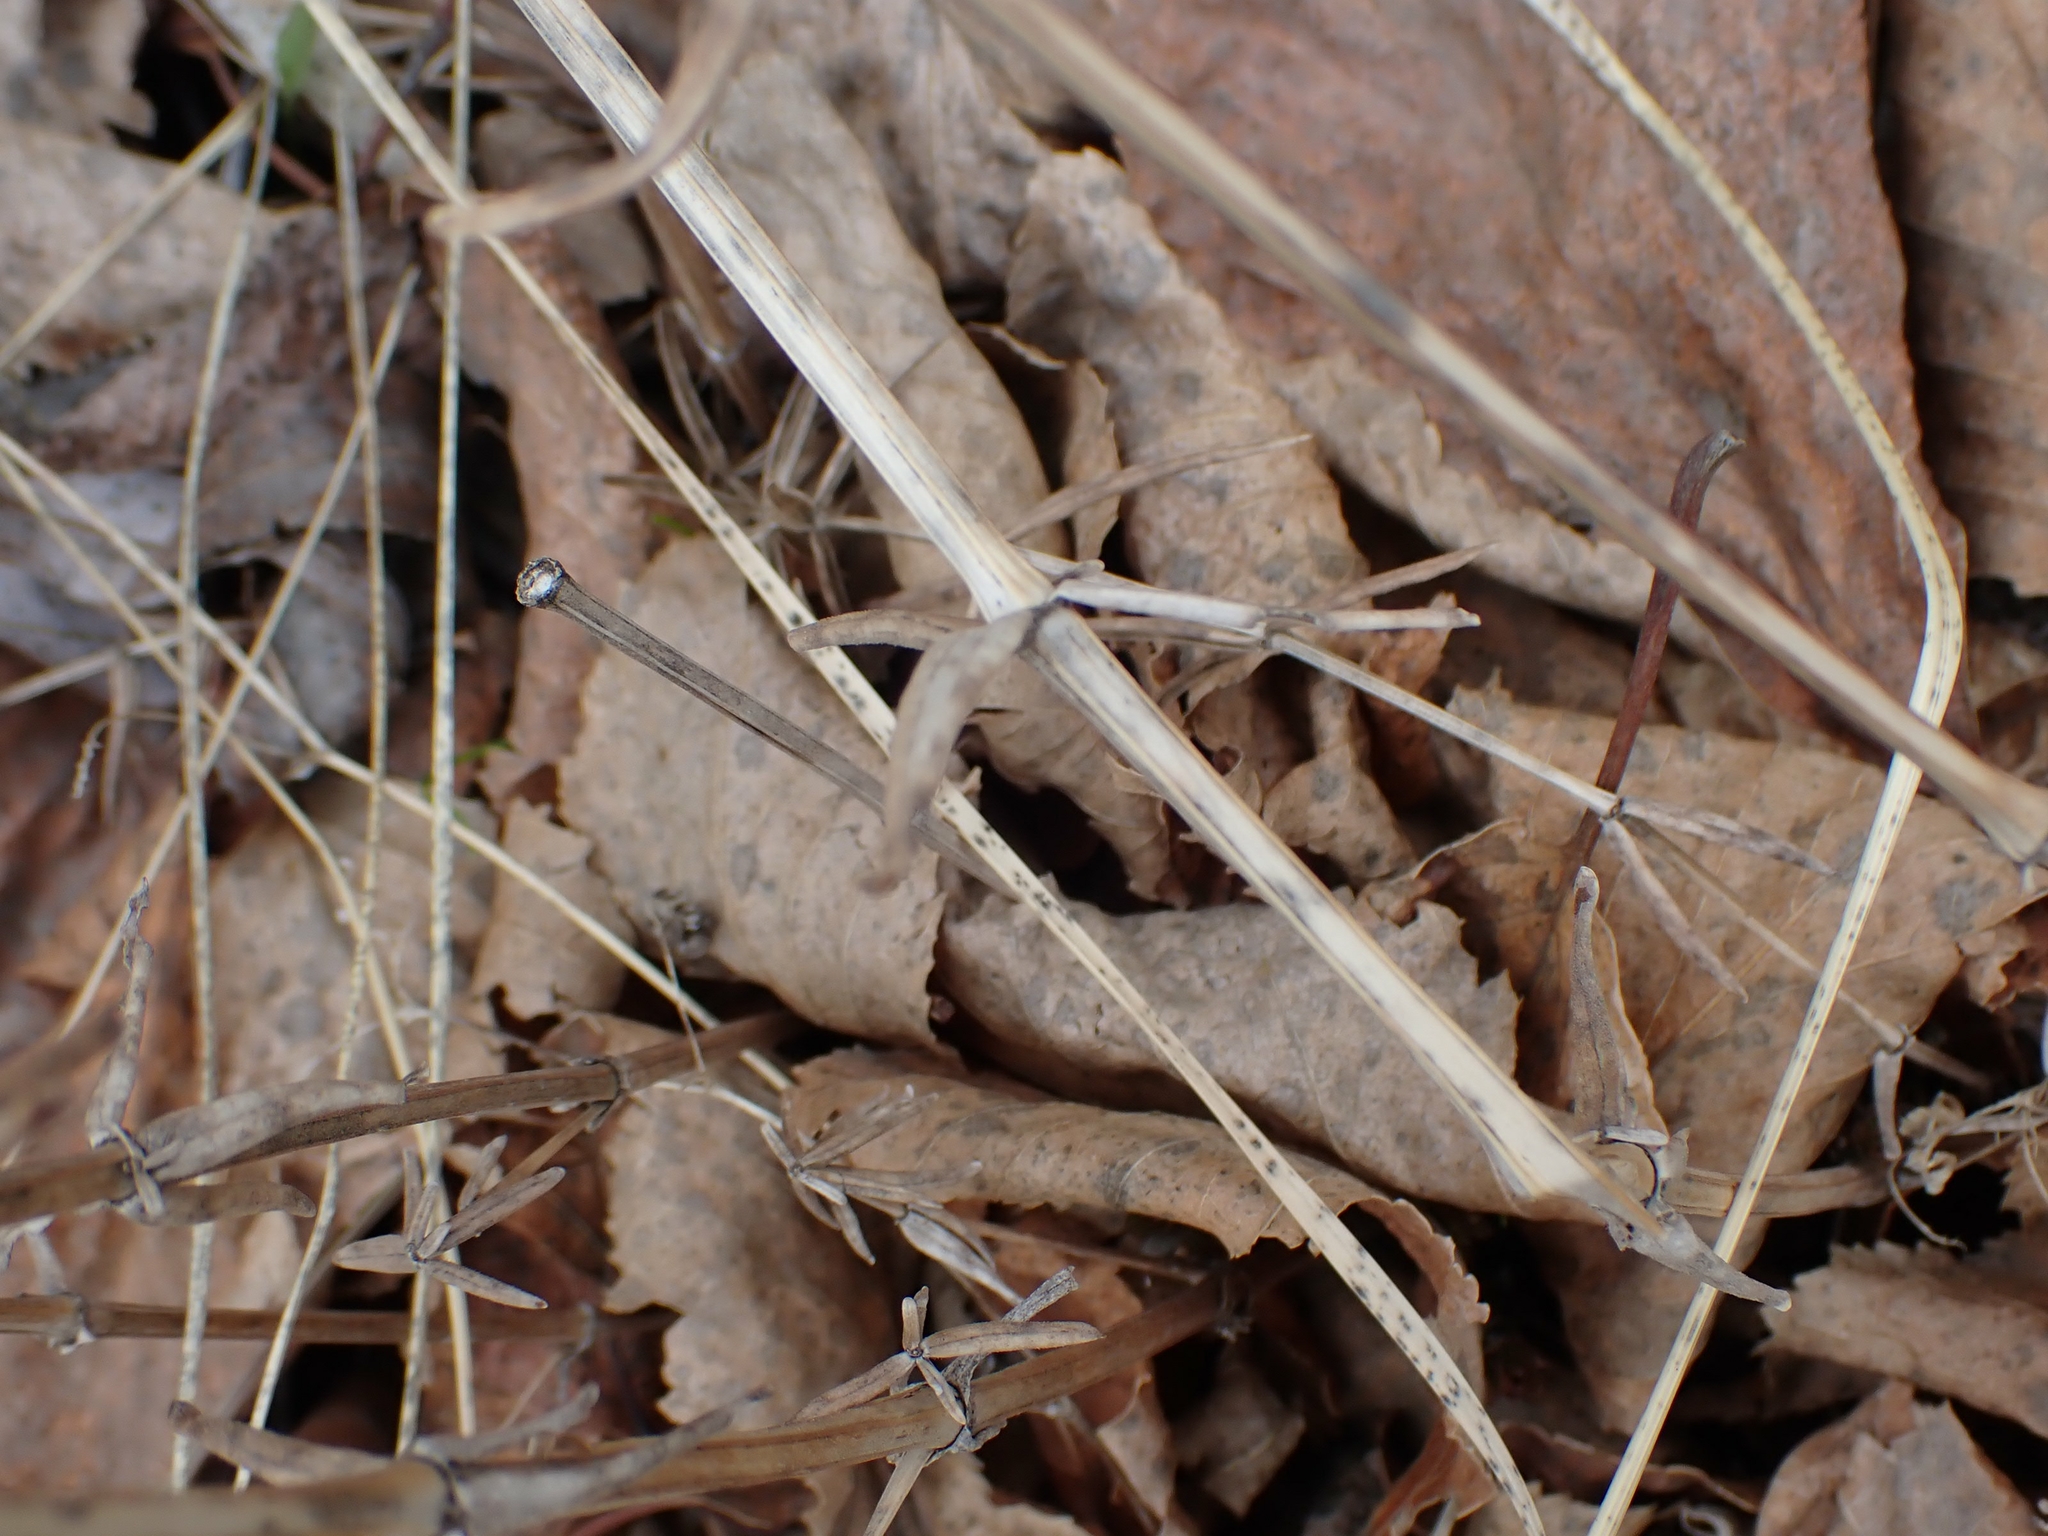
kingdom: Plantae
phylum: Tracheophyta
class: Magnoliopsida
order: Gentianales
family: Rubiaceae
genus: Galium
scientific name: Galium boreale
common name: Northern bedstraw
